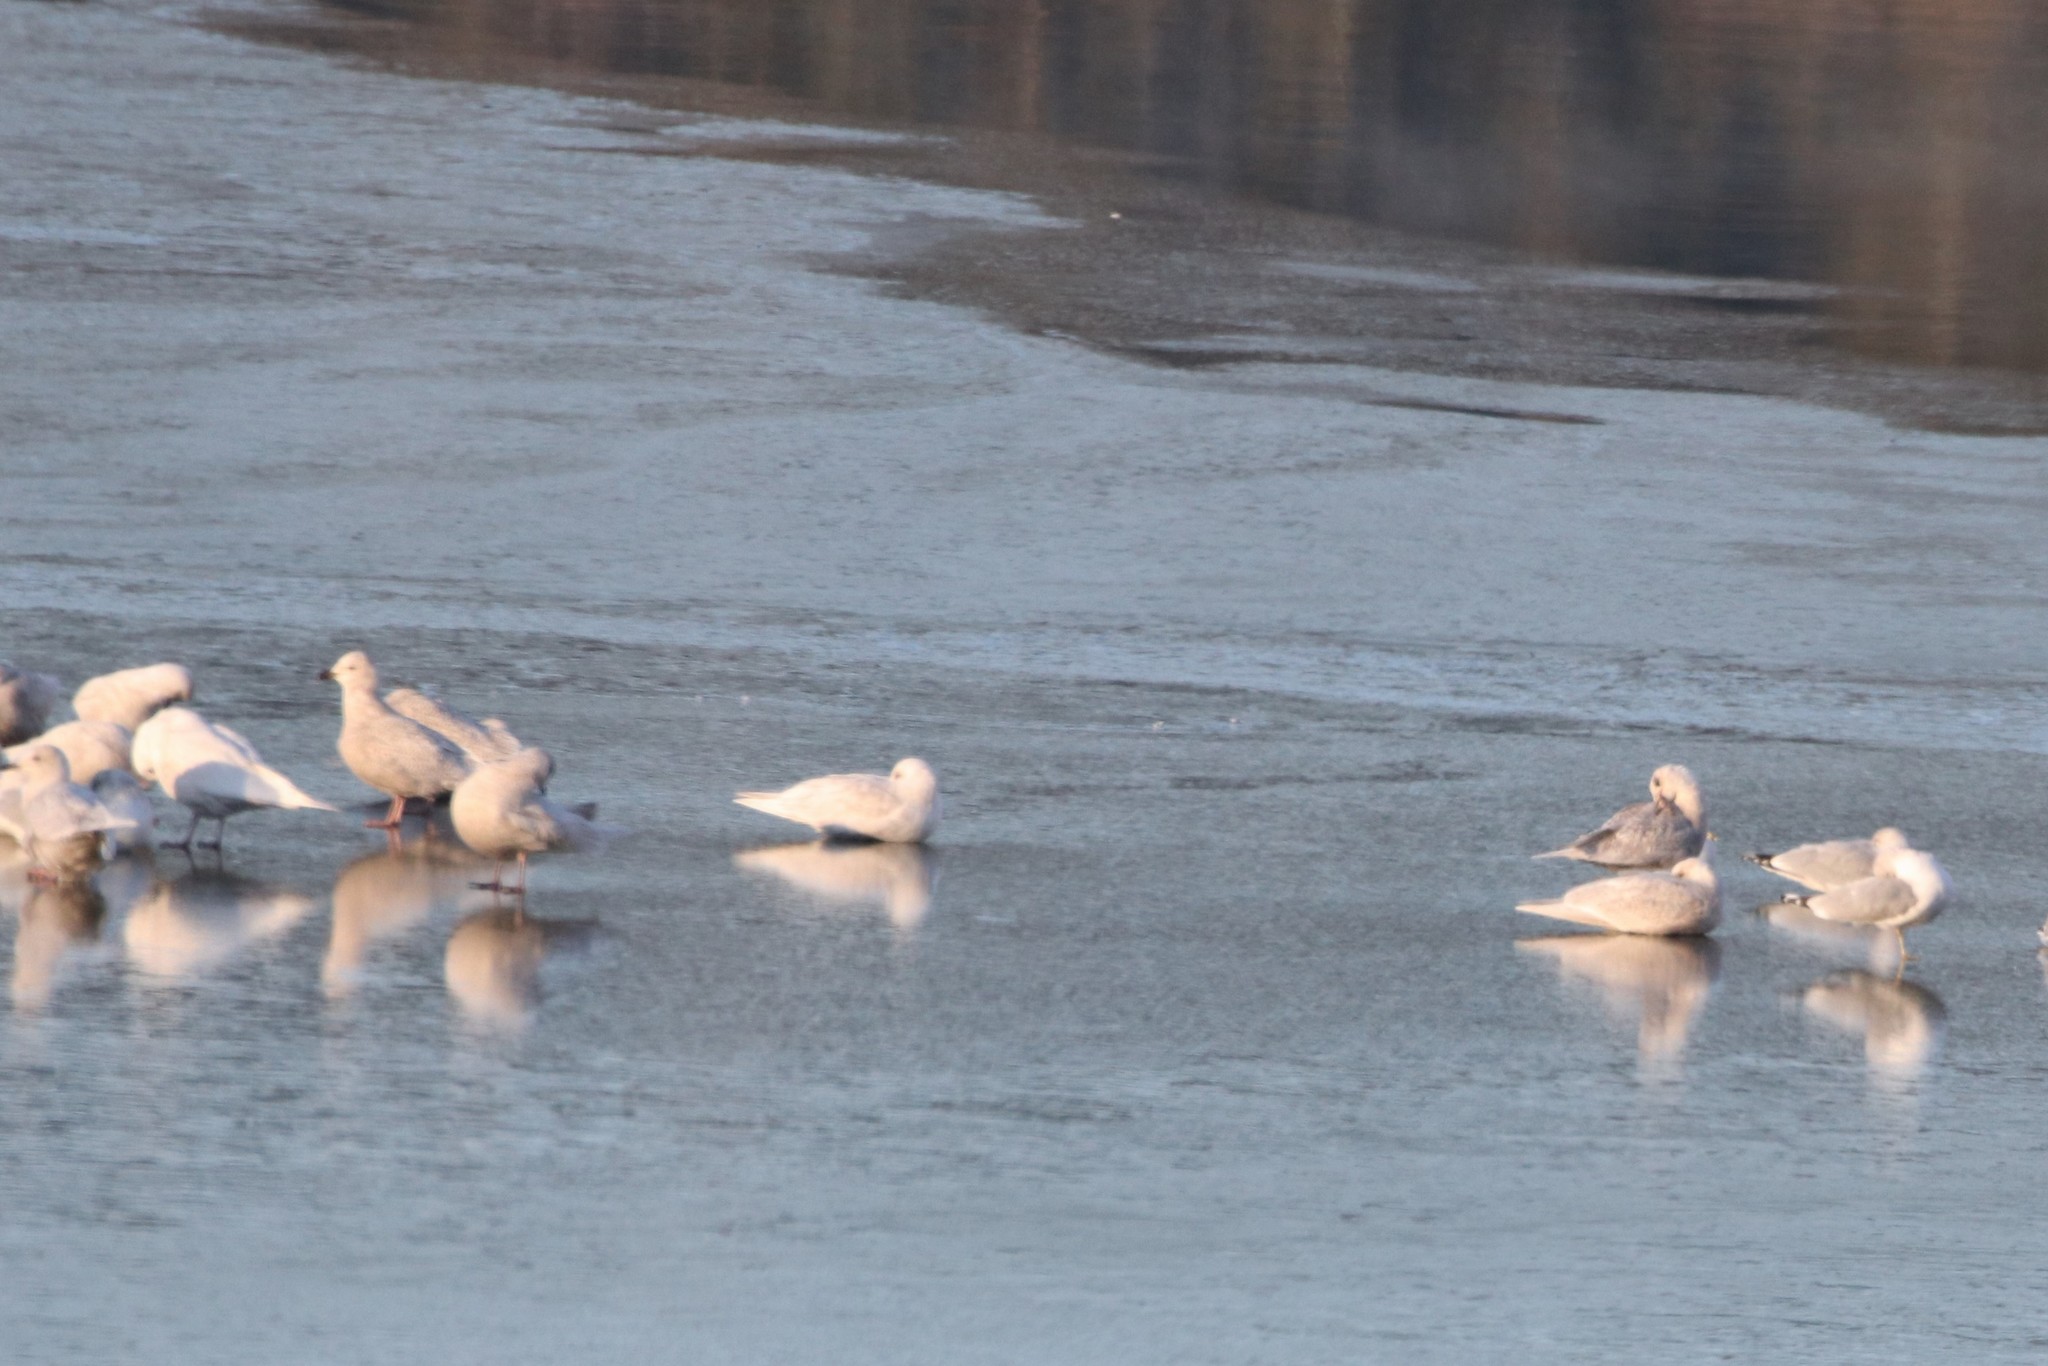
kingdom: Animalia
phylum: Chordata
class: Aves
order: Charadriiformes
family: Laridae
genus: Larus
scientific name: Larus glaucoides
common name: Iceland gull
